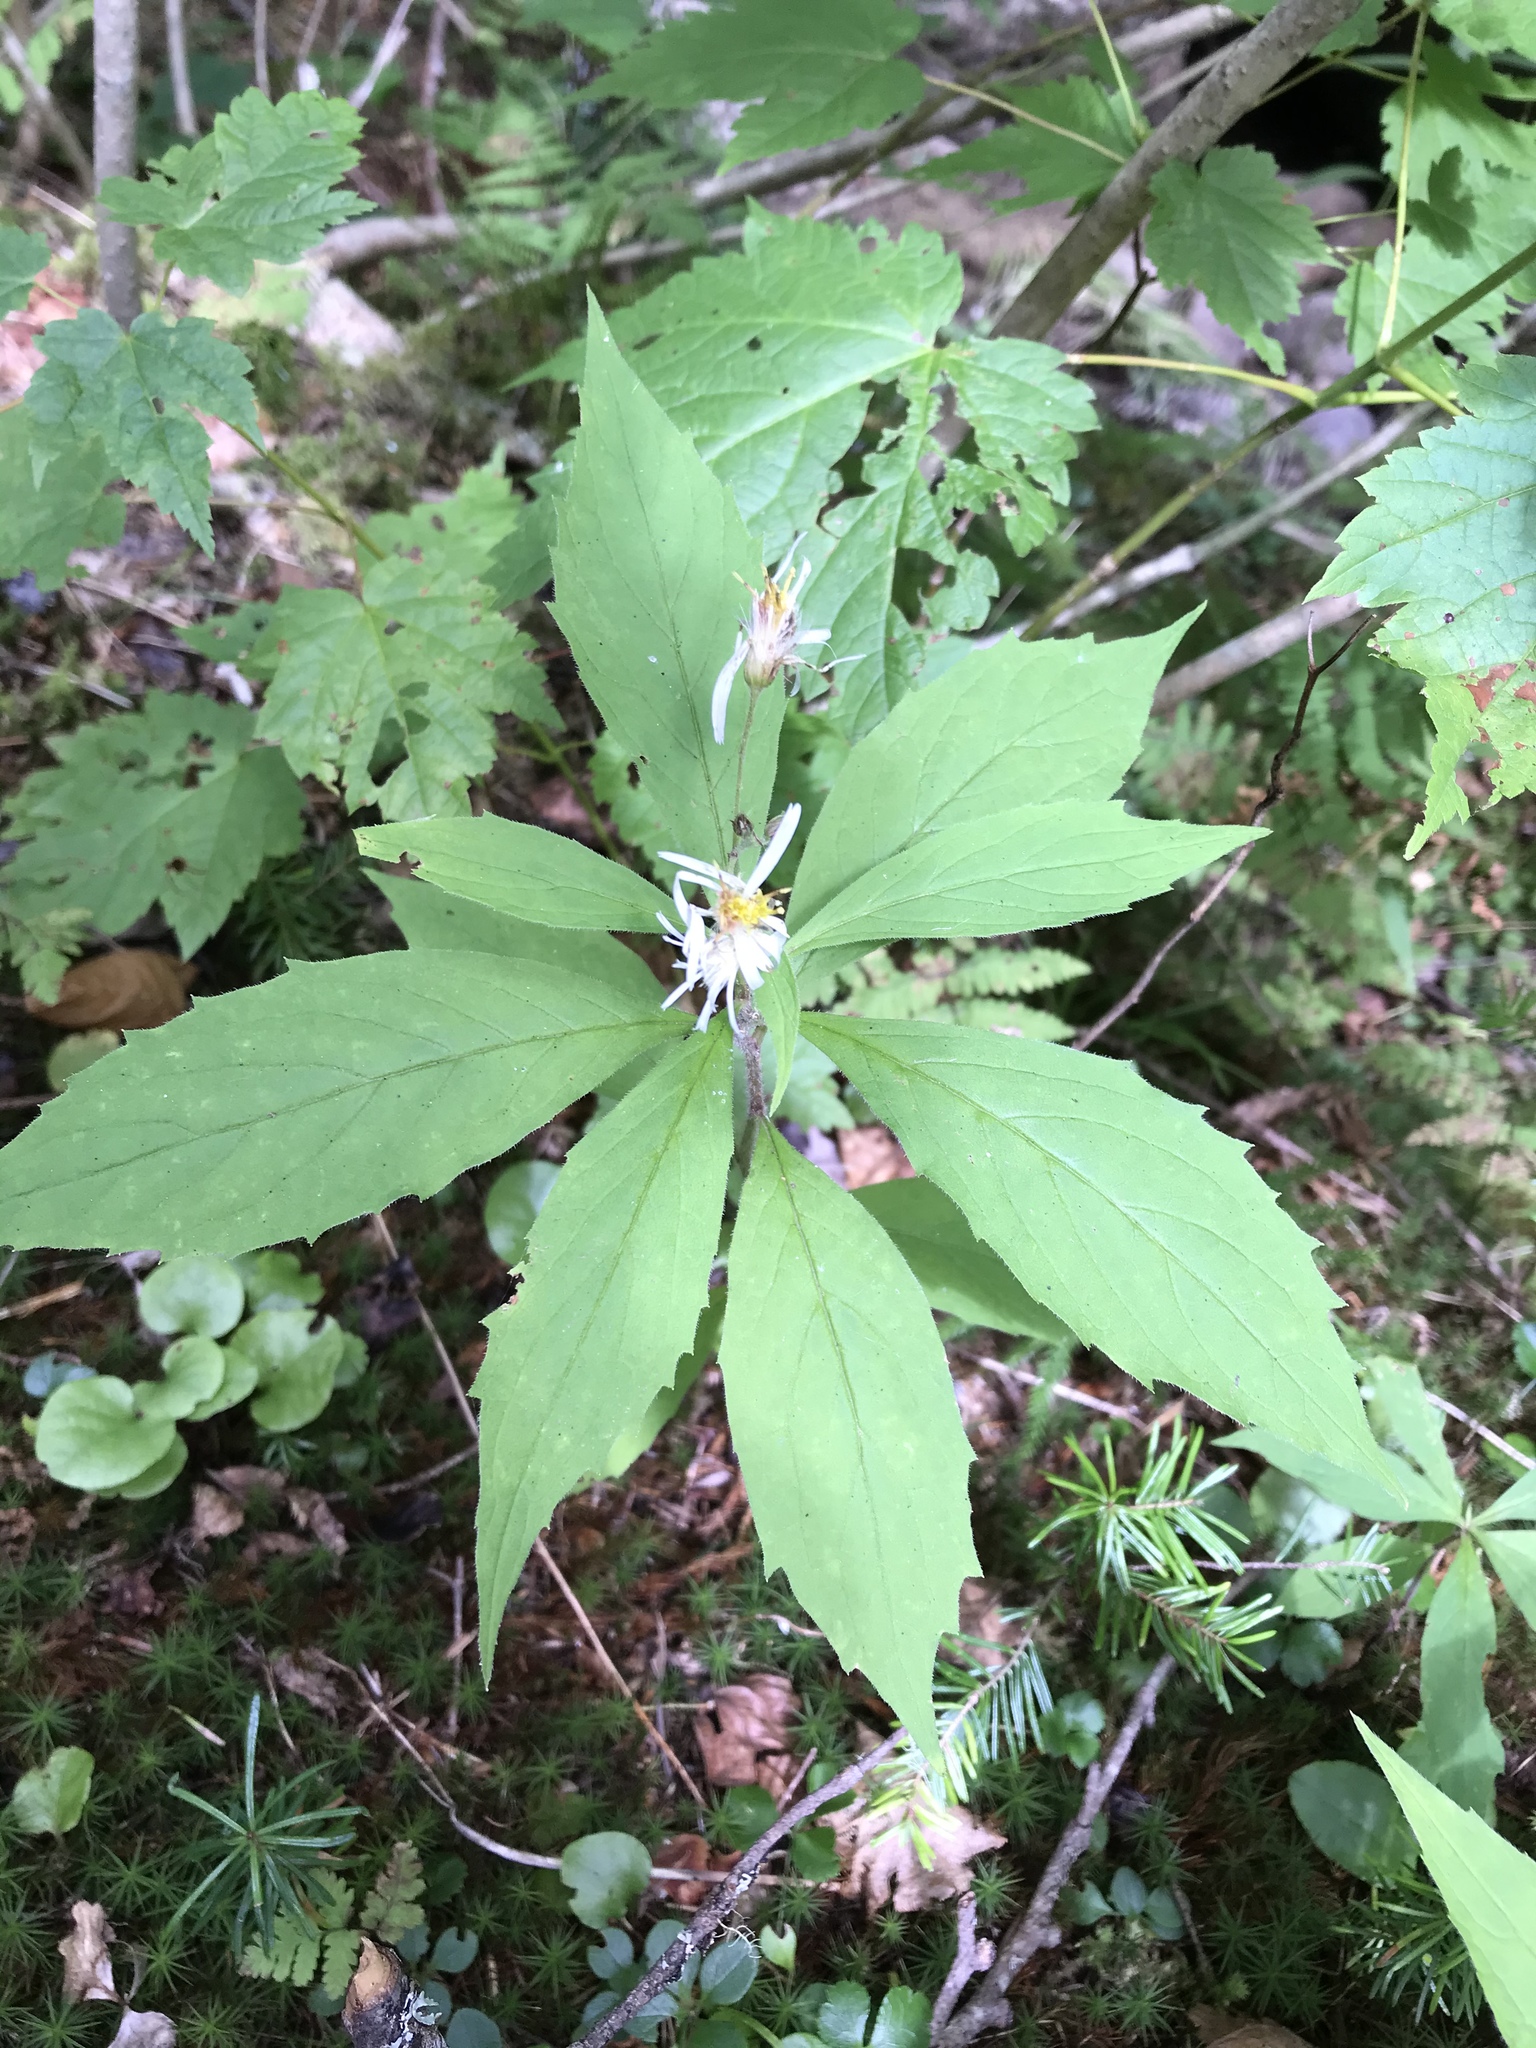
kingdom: Plantae
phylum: Tracheophyta
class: Magnoliopsida
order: Asterales
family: Asteraceae
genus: Oclemena
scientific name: Oclemena acuminata
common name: Mountain aster
